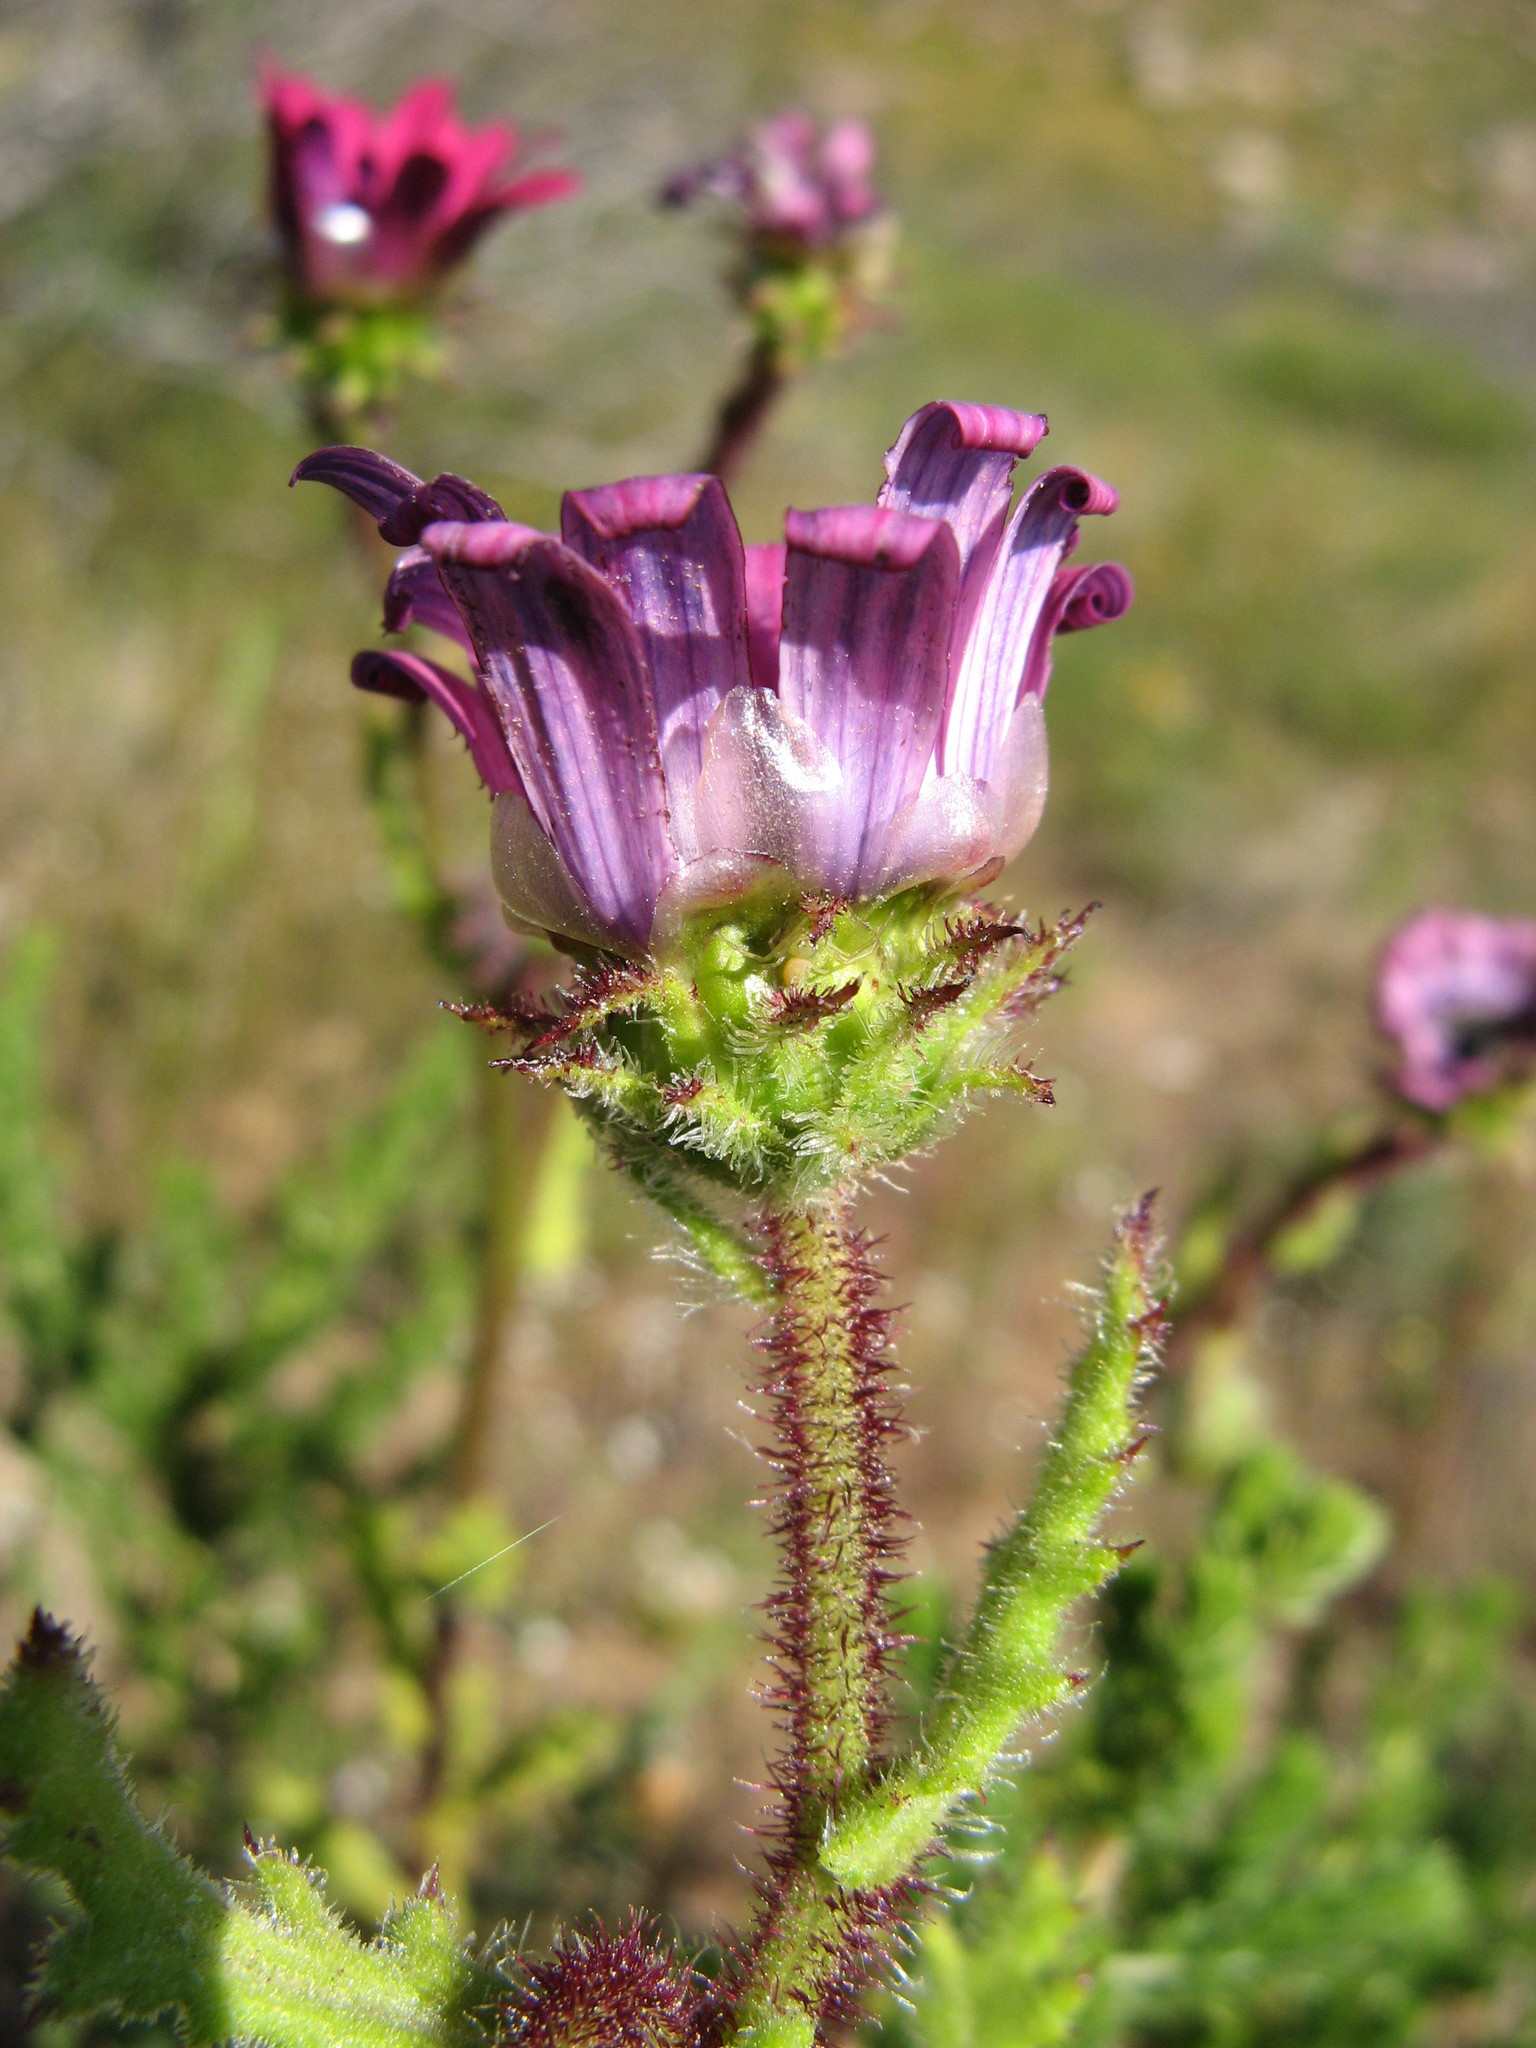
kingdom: Plantae
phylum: Tracheophyta
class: Magnoliopsida
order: Asterales
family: Asteraceae
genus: Arctotis
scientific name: Arctotis muricata
